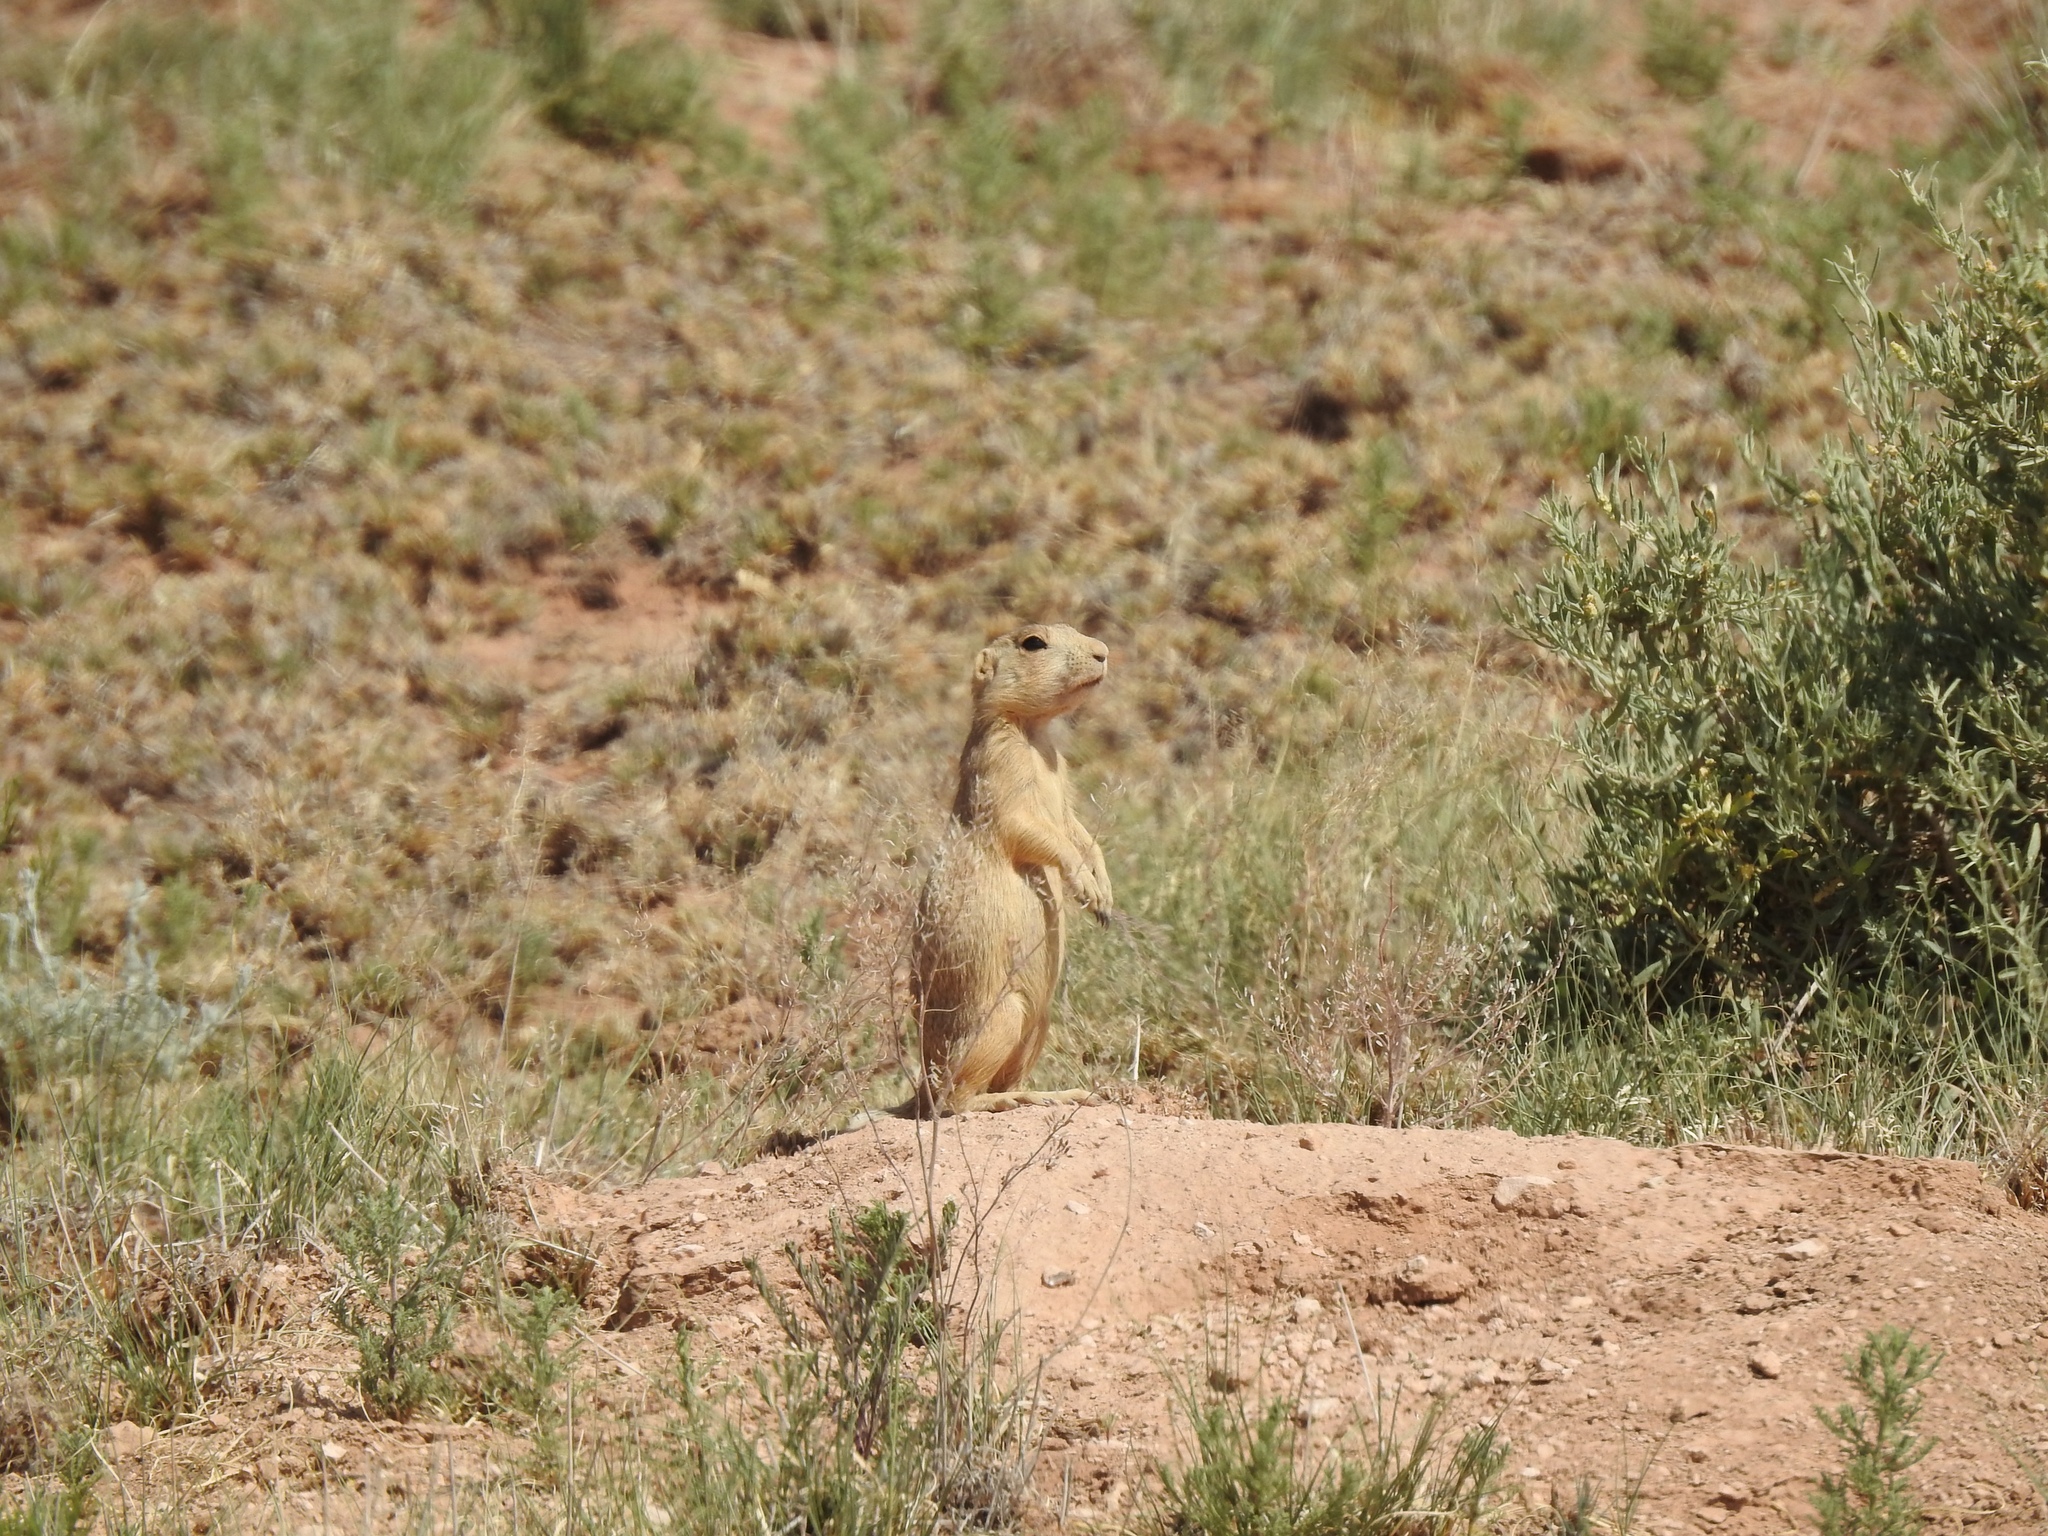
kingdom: Animalia
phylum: Chordata
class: Mammalia
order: Rodentia
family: Sciuridae
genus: Cynomys
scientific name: Cynomys gunnisoni
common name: Gunnison's prairie dog
